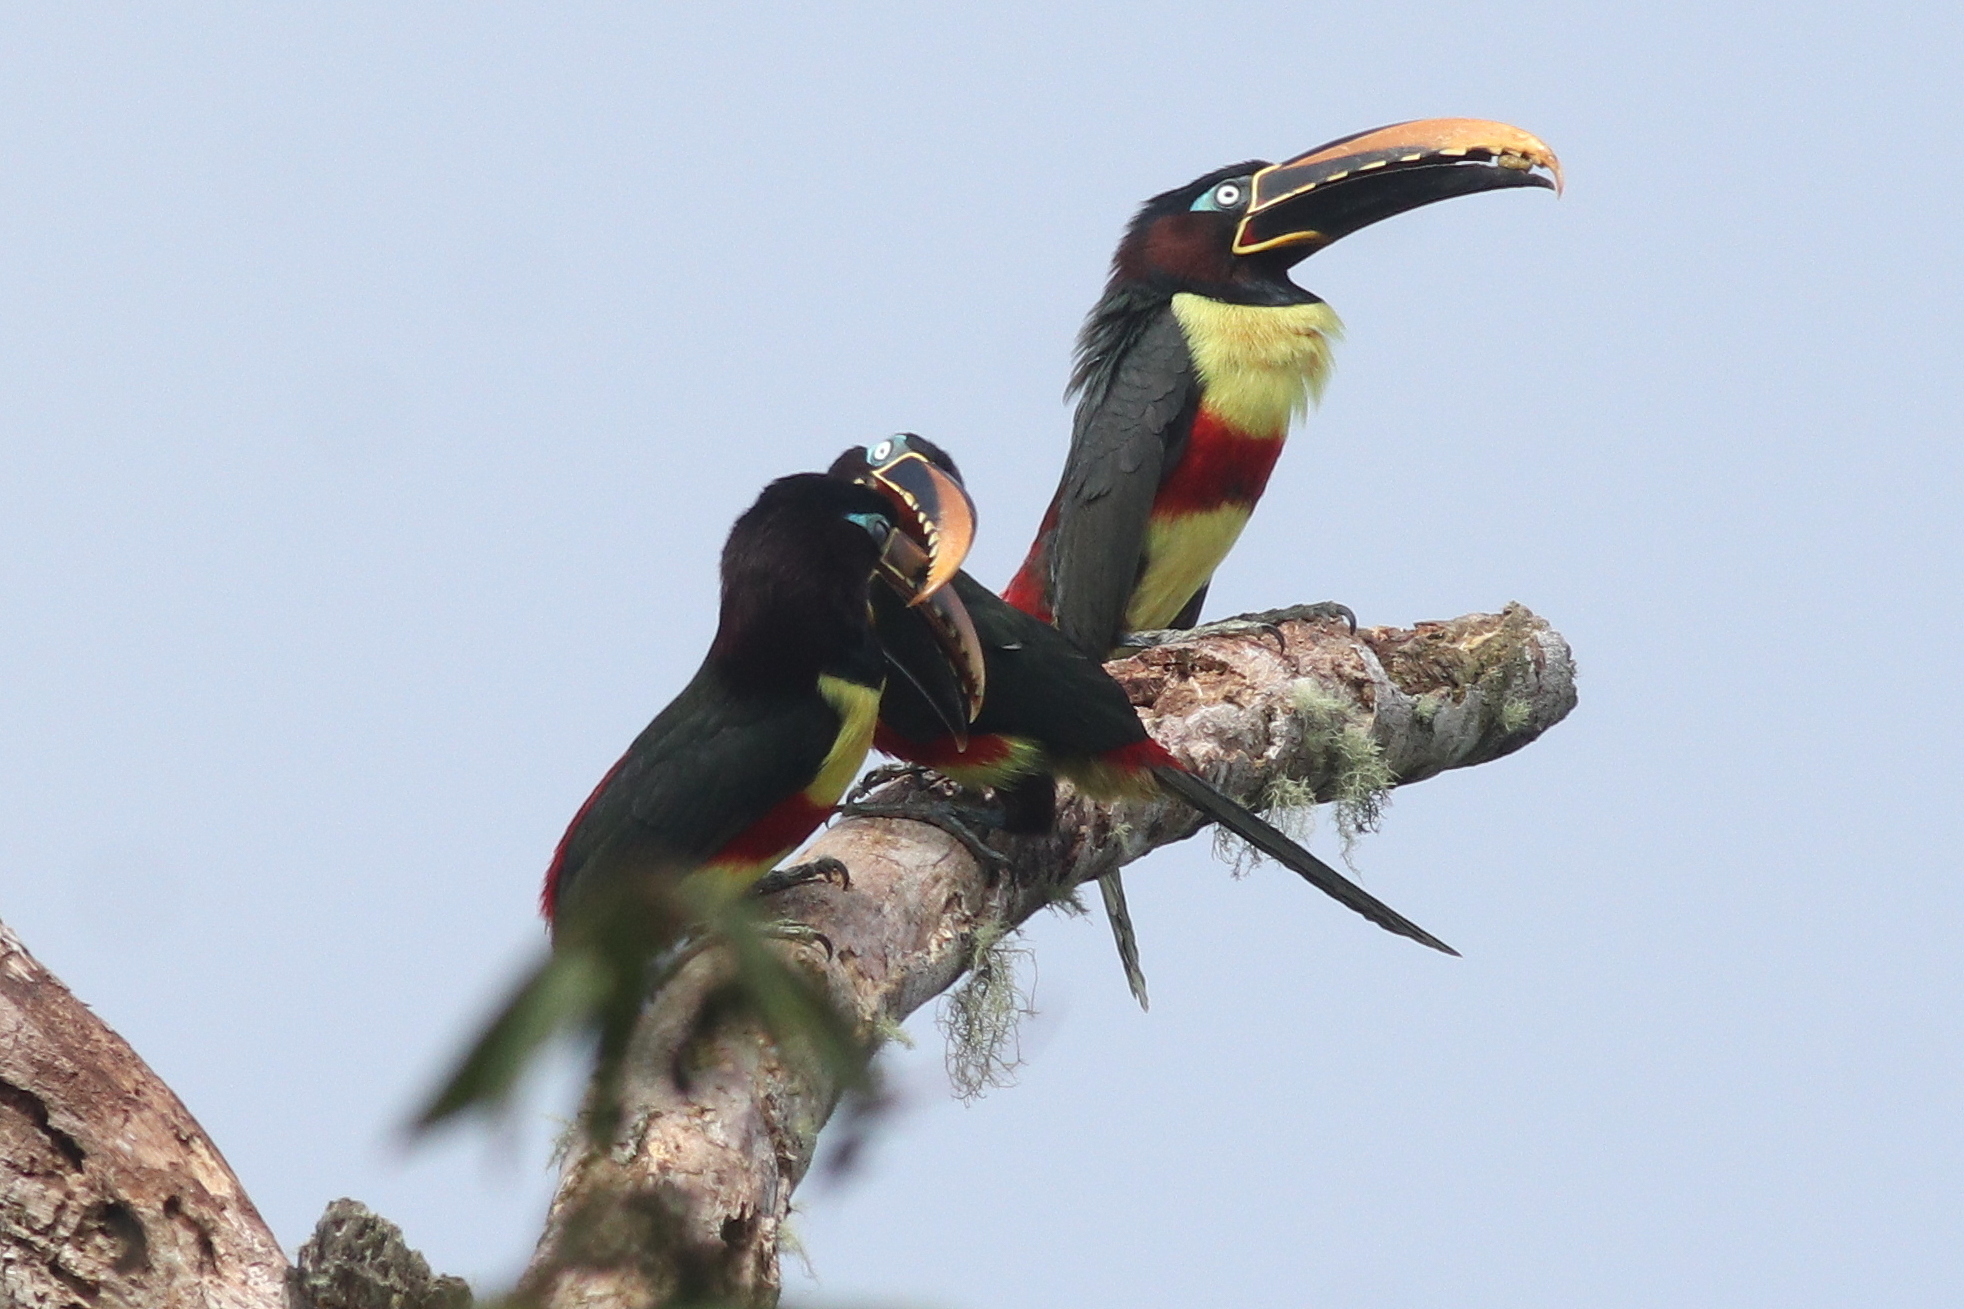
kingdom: Animalia
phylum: Chordata
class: Aves
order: Piciformes
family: Ramphastidae
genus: Pteroglossus
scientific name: Pteroglossus castanotis
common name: Chestnut-eared aracari
